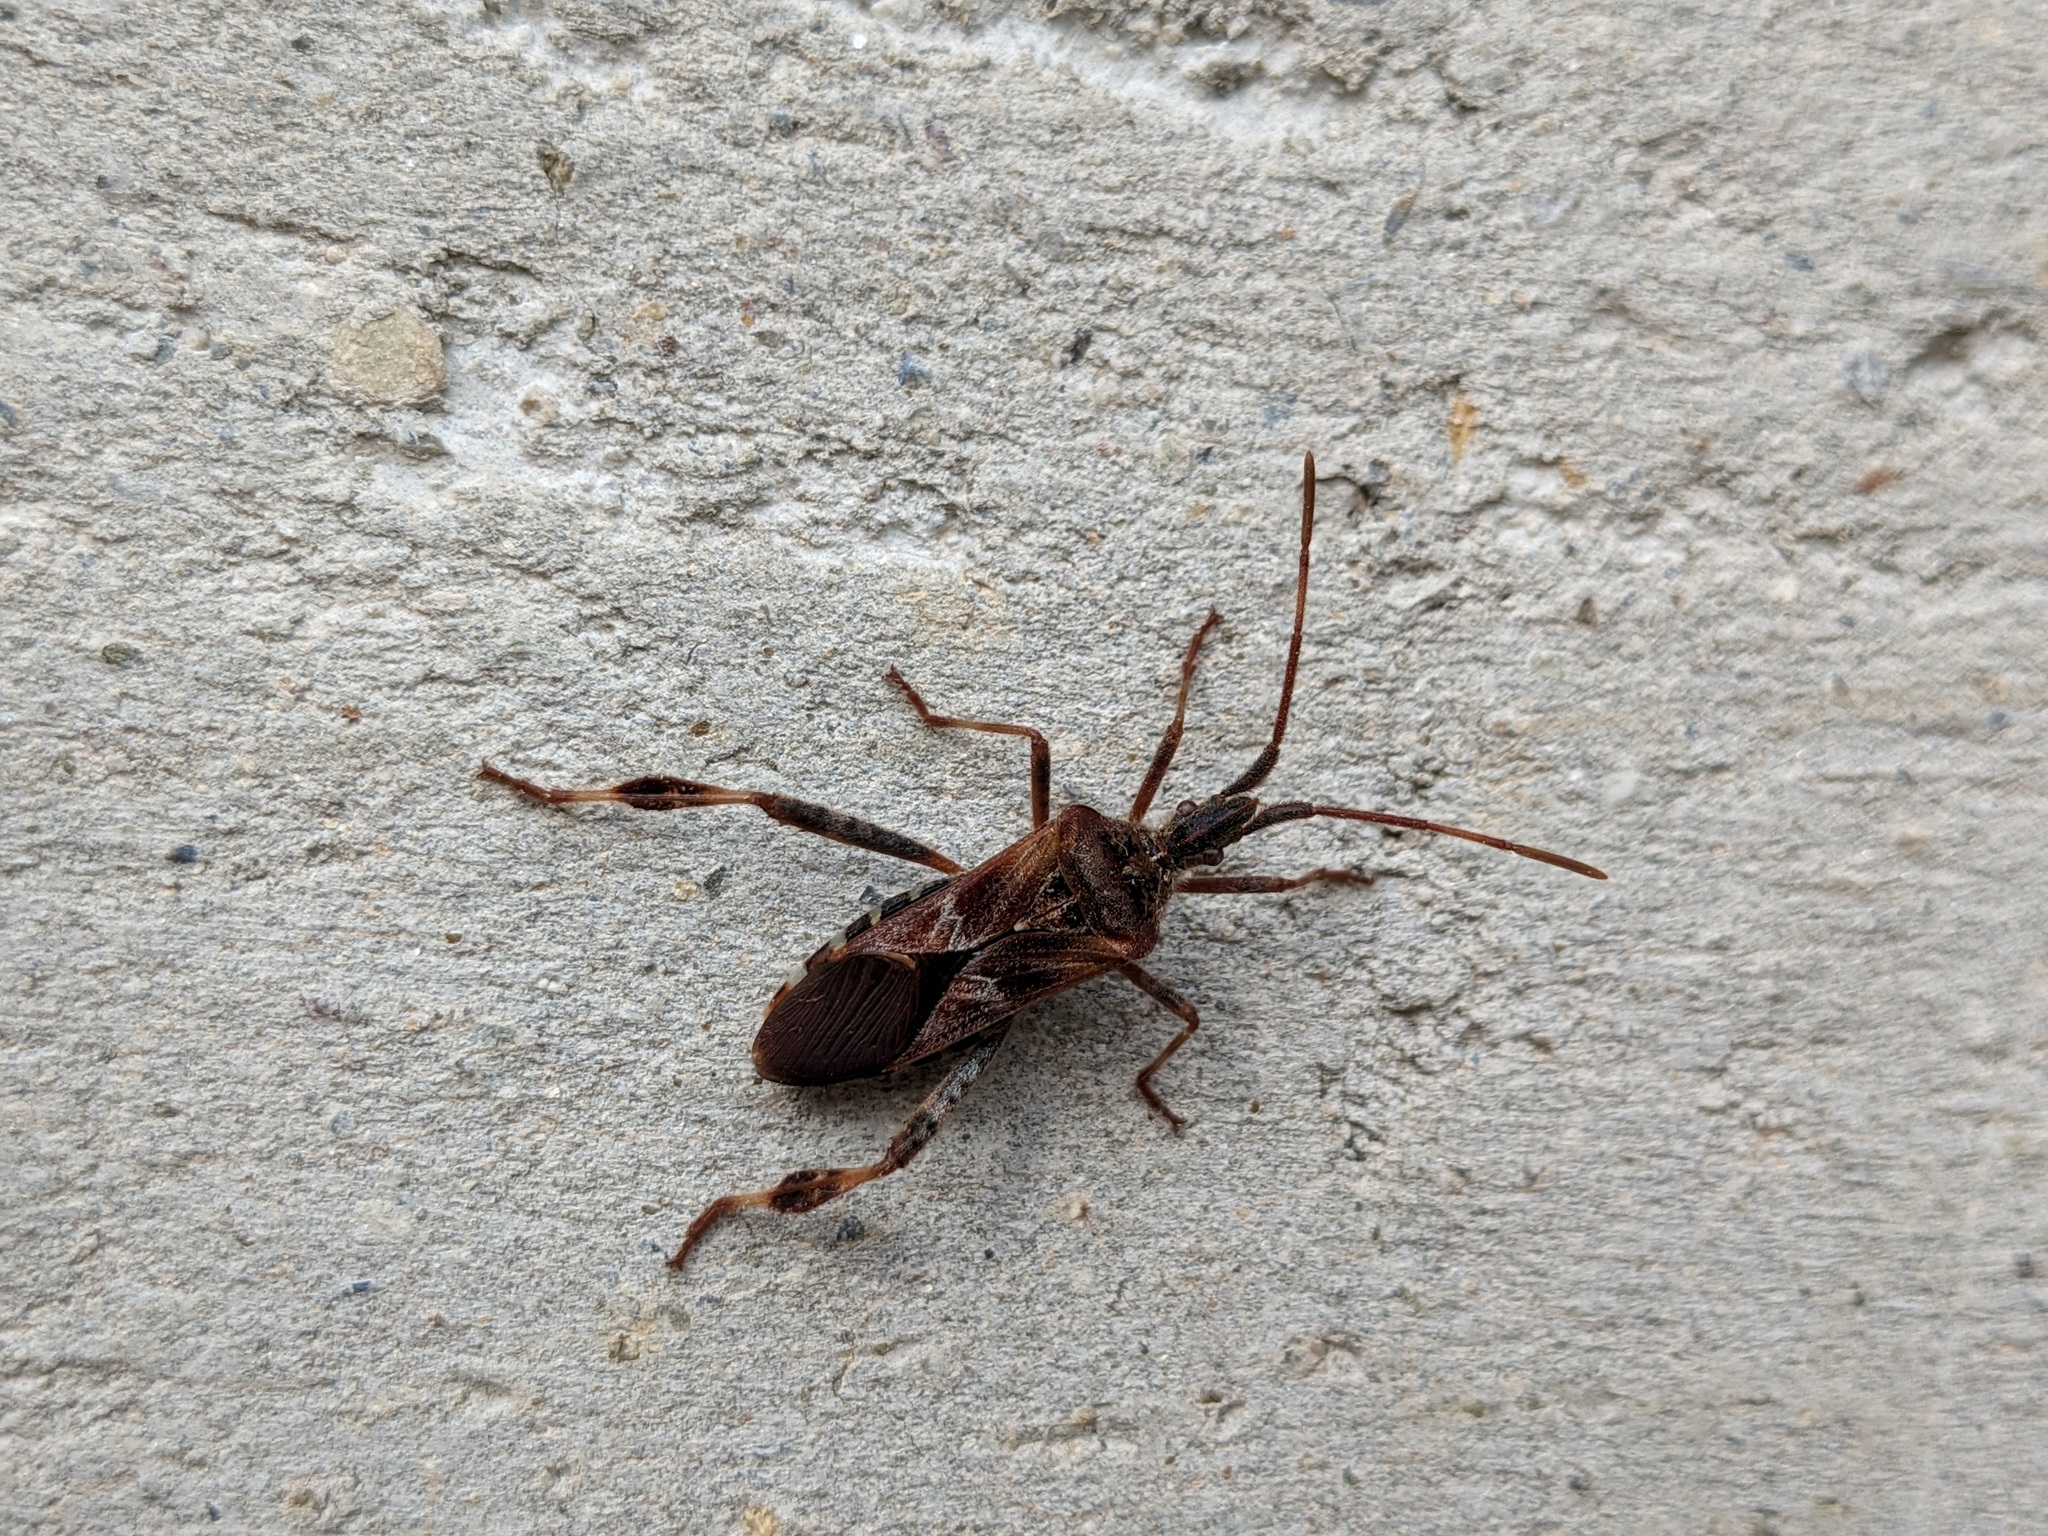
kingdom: Animalia
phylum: Arthropoda
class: Insecta
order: Hemiptera
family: Coreidae
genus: Leptoglossus
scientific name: Leptoglossus occidentalis
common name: Western conifer-seed bug
